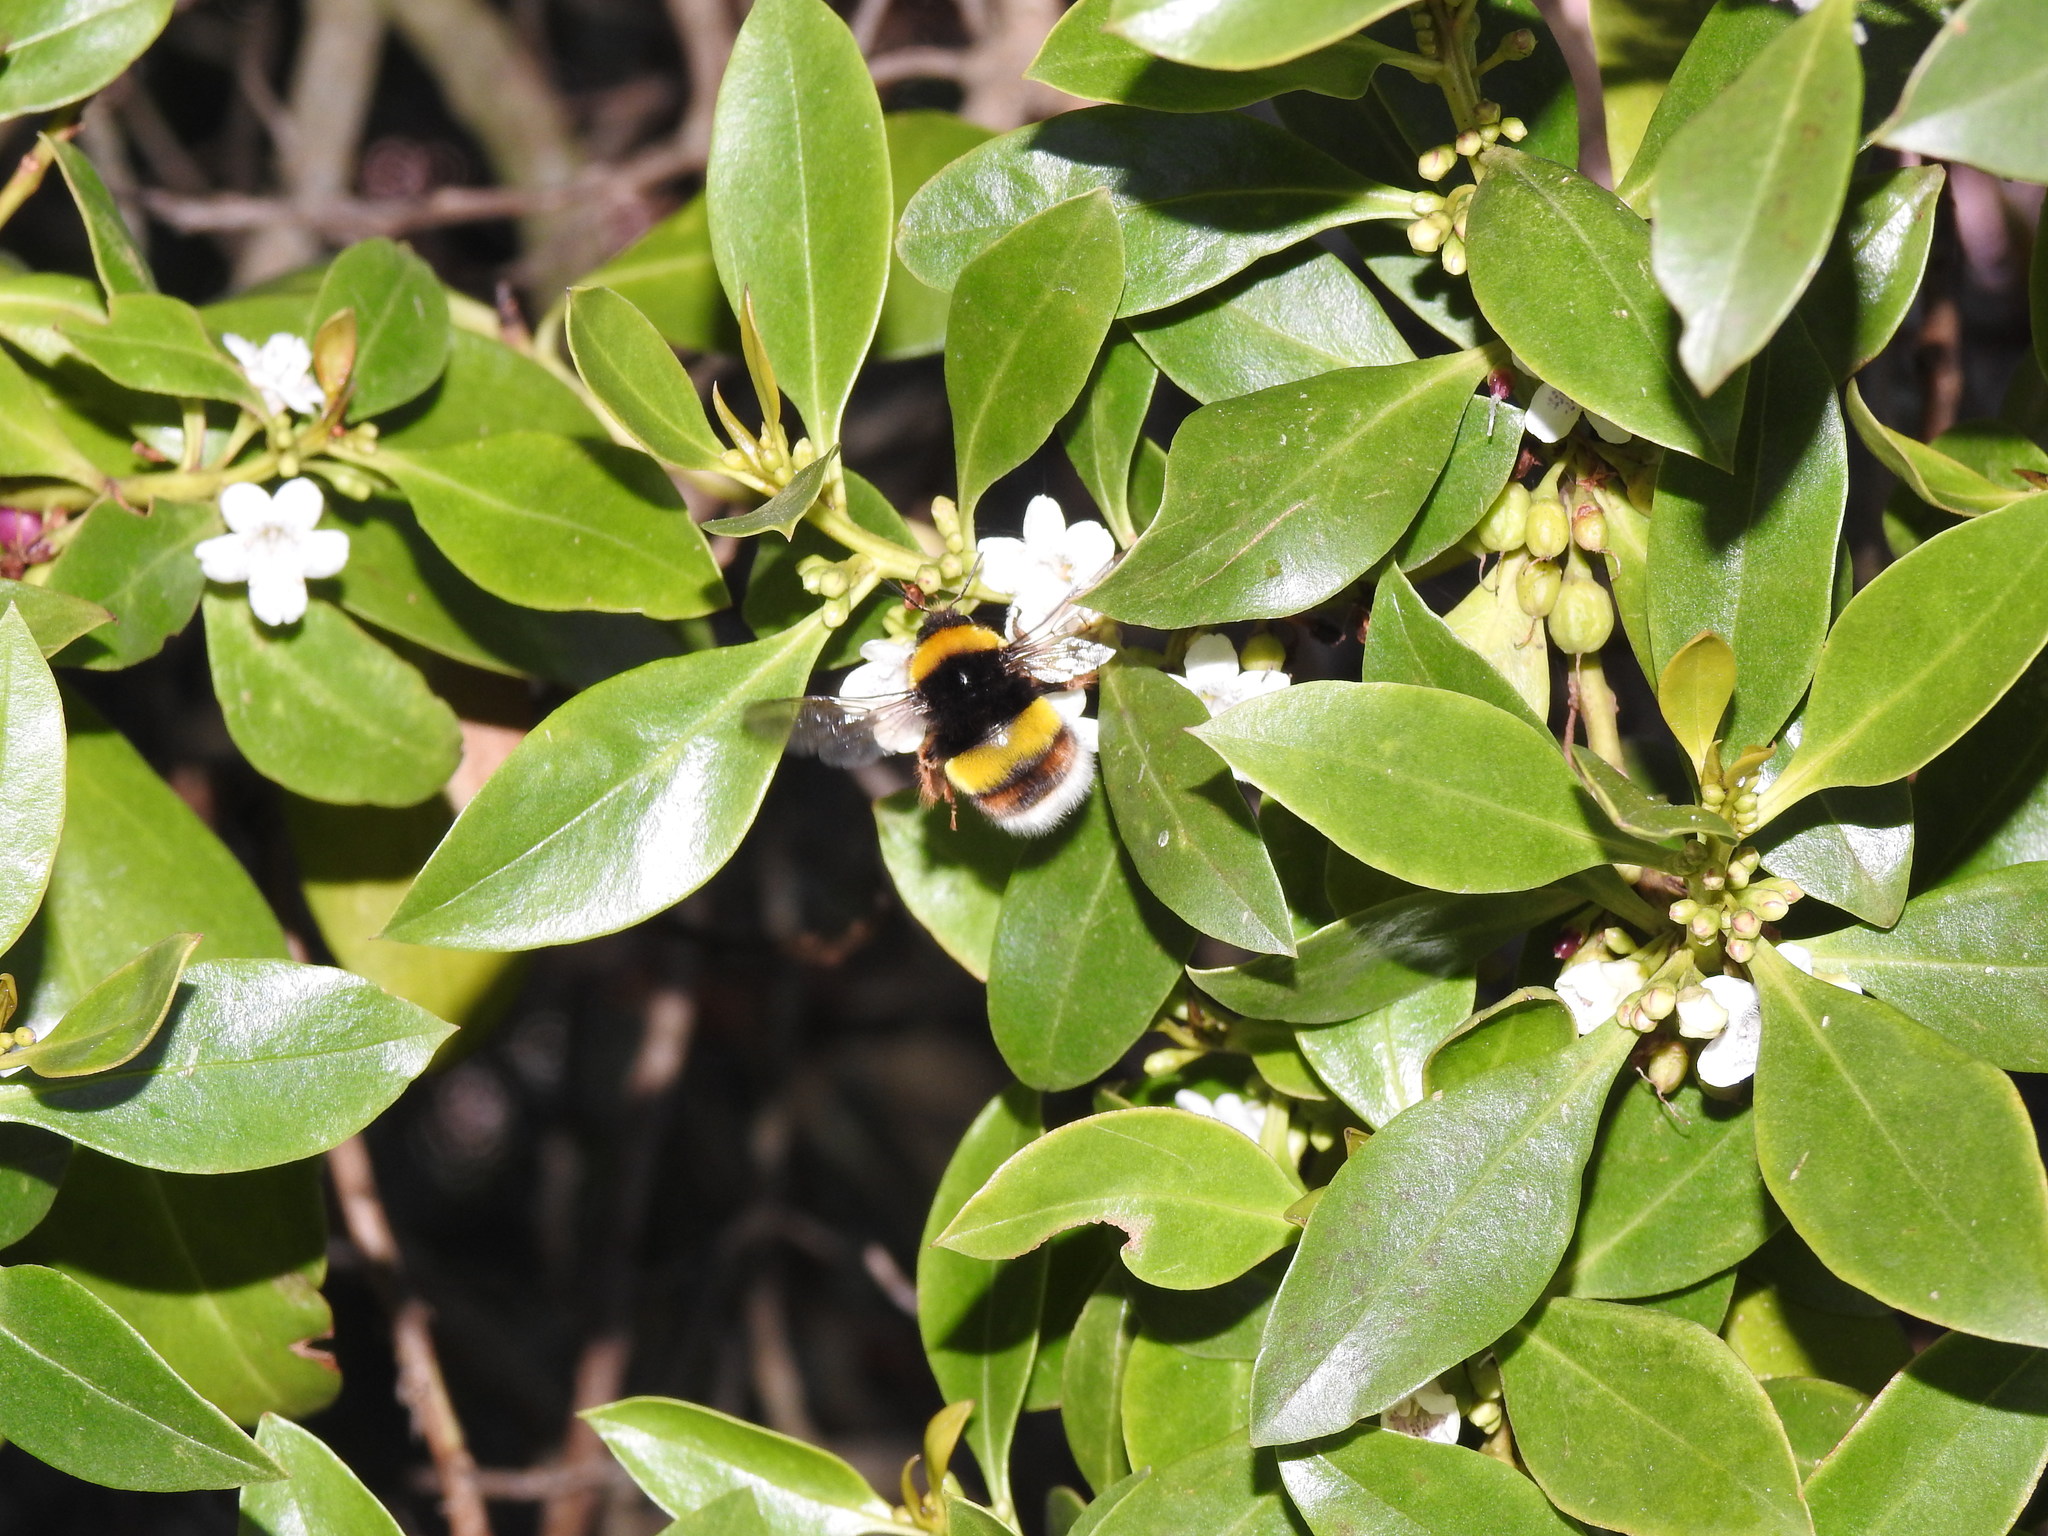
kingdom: Animalia
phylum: Arthropoda
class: Insecta
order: Hymenoptera
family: Apidae
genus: Bombus
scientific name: Bombus terrestris
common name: Buff-tailed bumblebee
